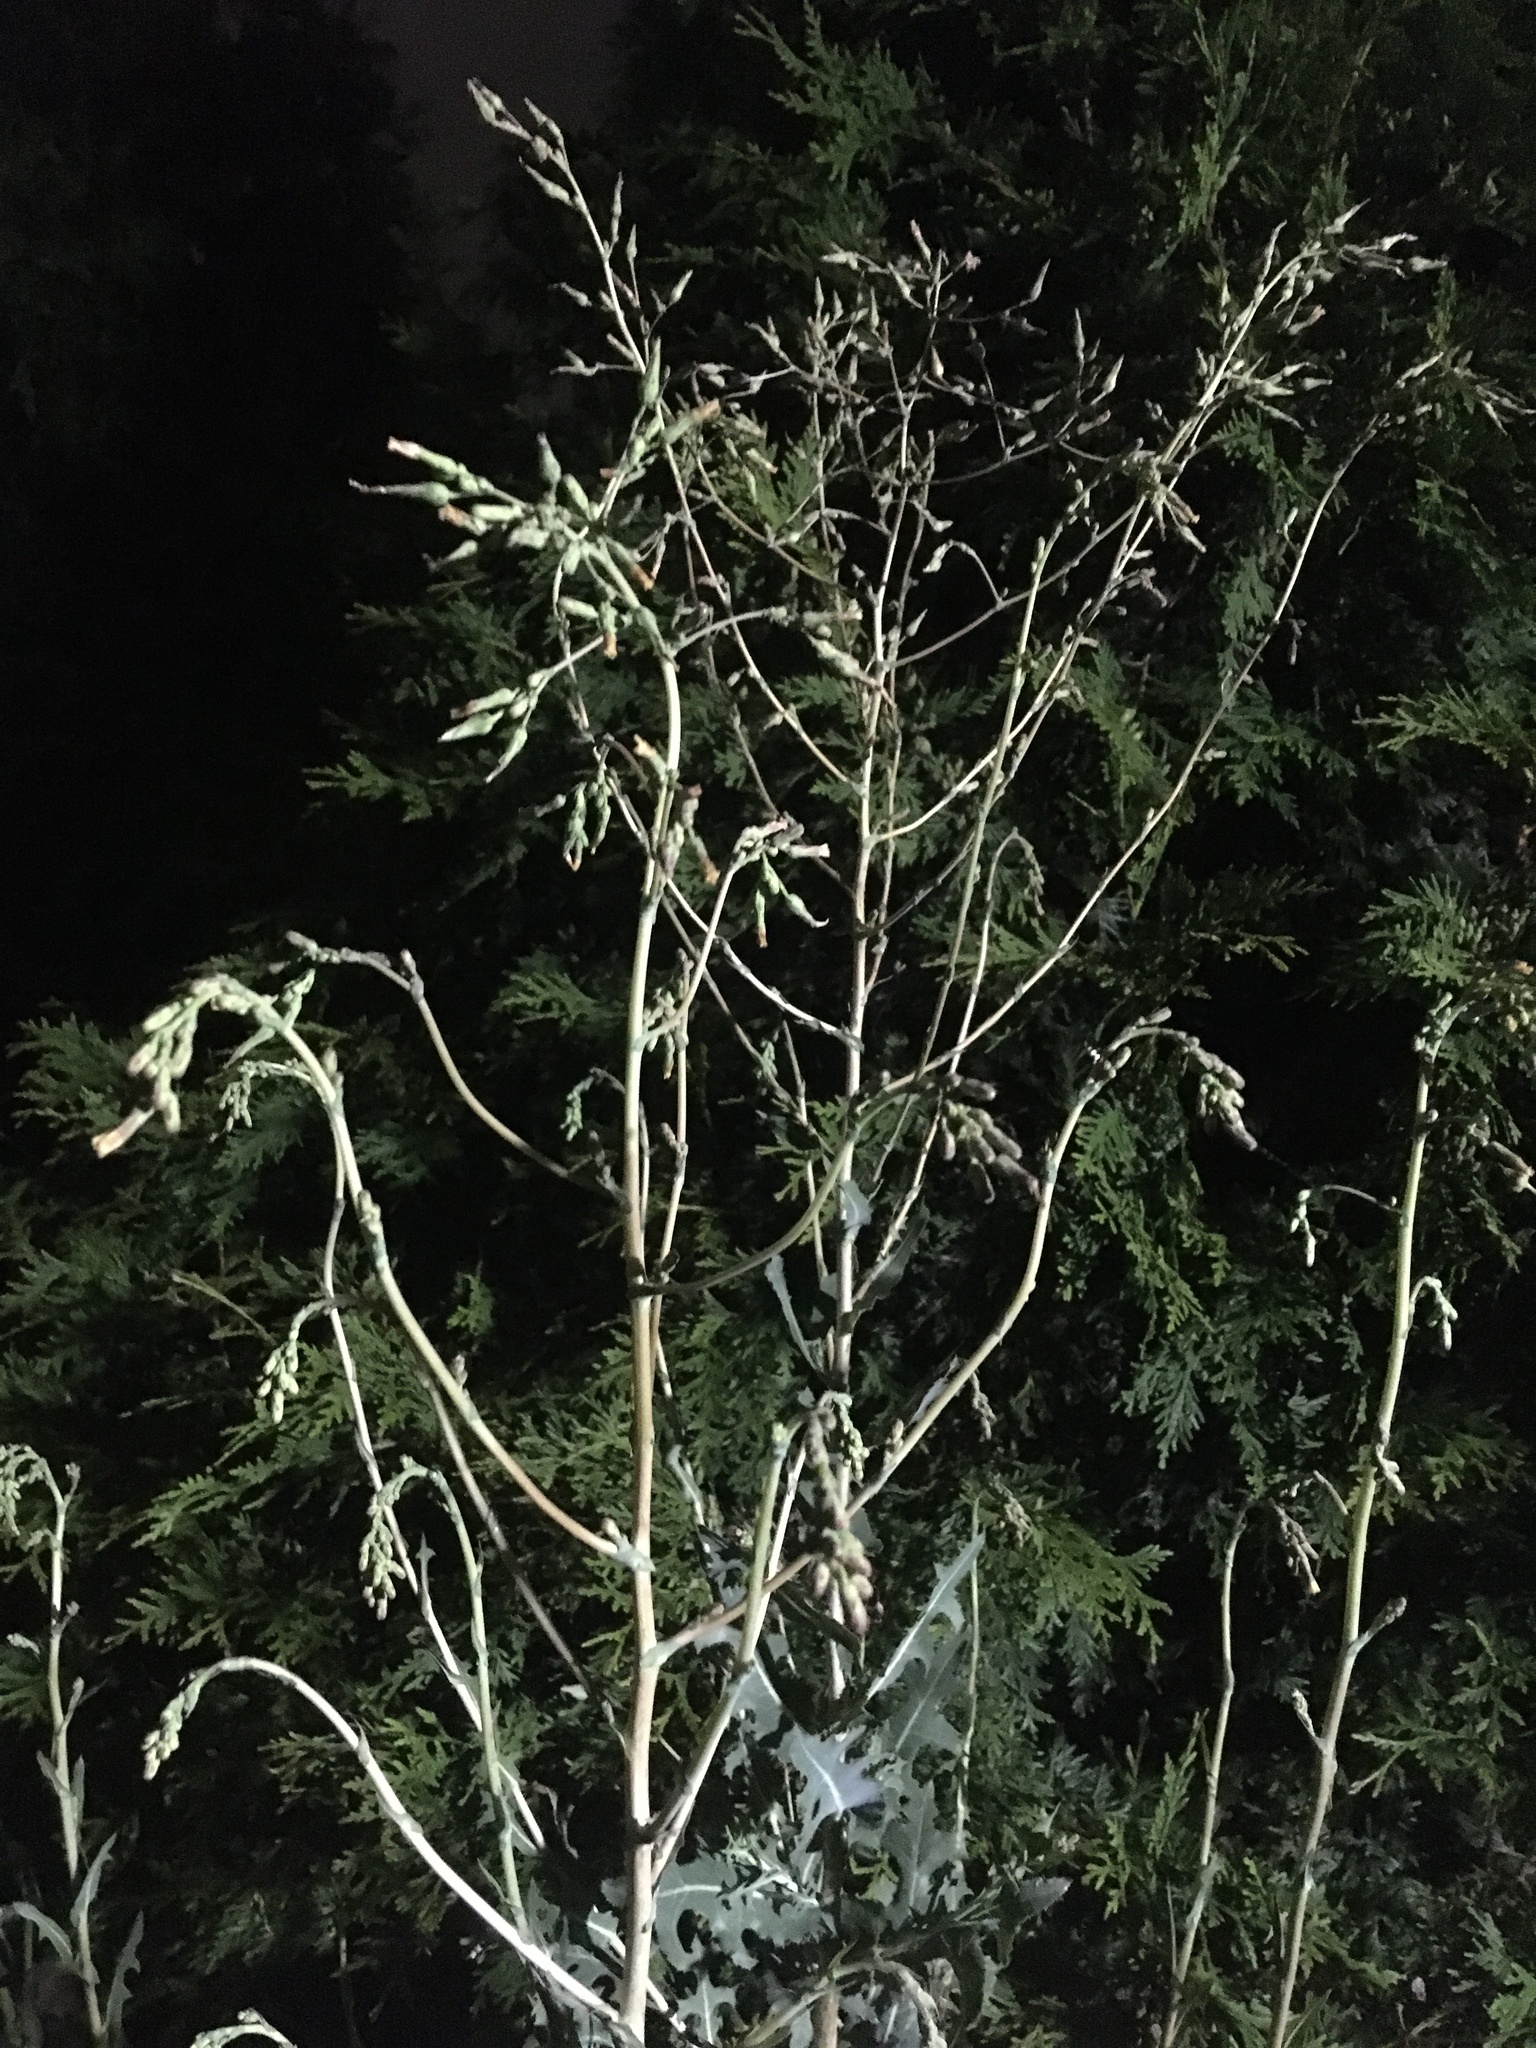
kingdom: Plantae
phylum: Tracheophyta
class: Magnoliopsida
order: Asterales
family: Asteraceae
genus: Lactuca
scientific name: Lactuca serriola
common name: Prickly lettuce
